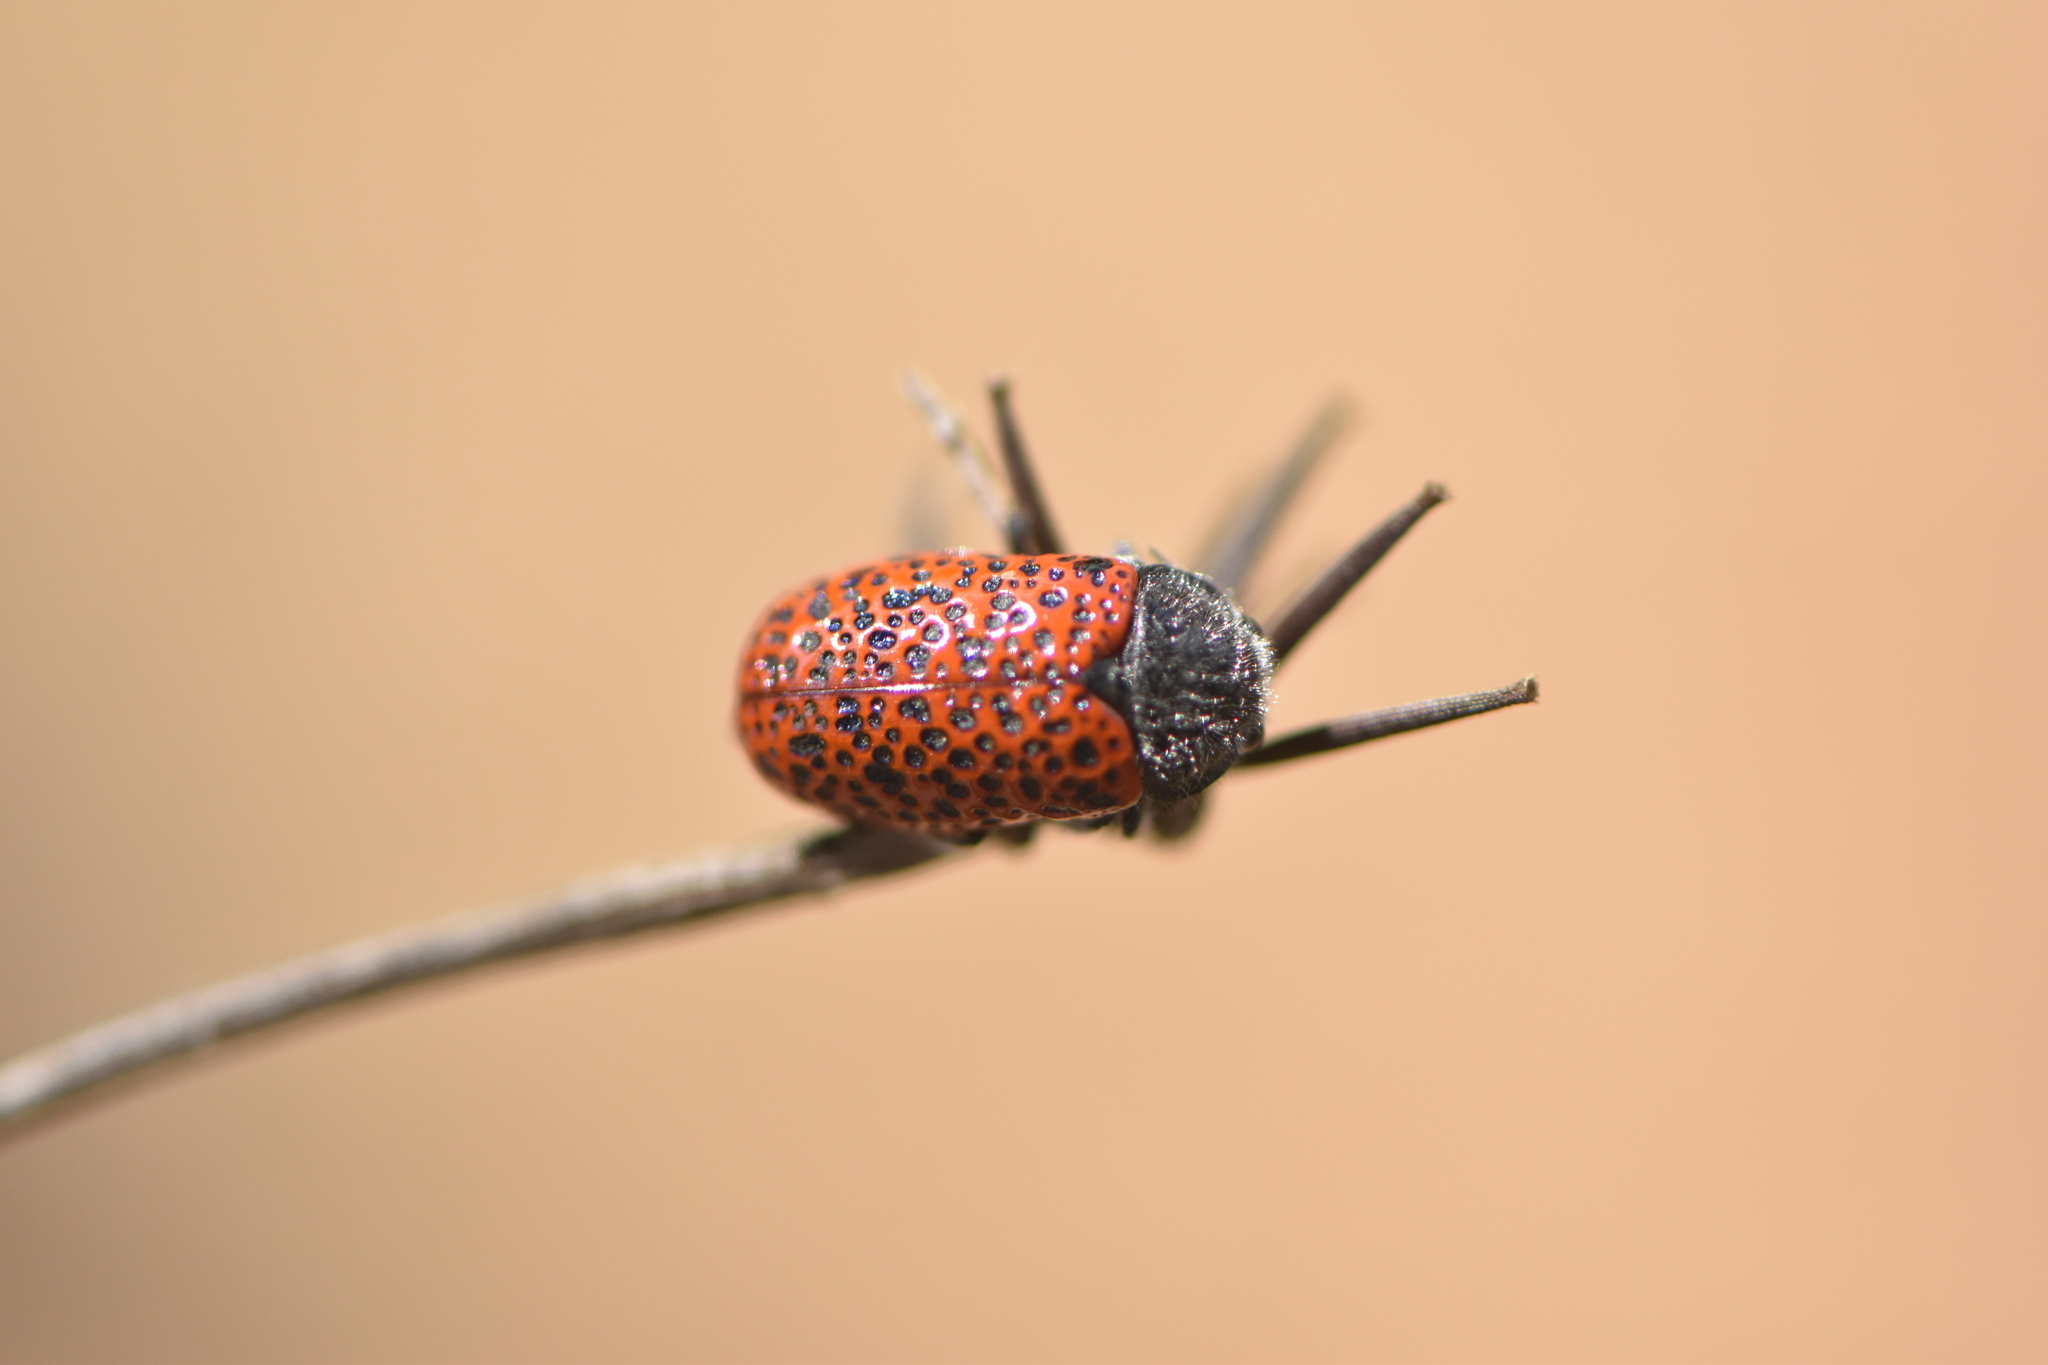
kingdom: Animalia
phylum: Arthropoda
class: Insecta
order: Coleoptera
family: Chrysomelidae
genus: Lachnaia
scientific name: Lachnaia variolosa
